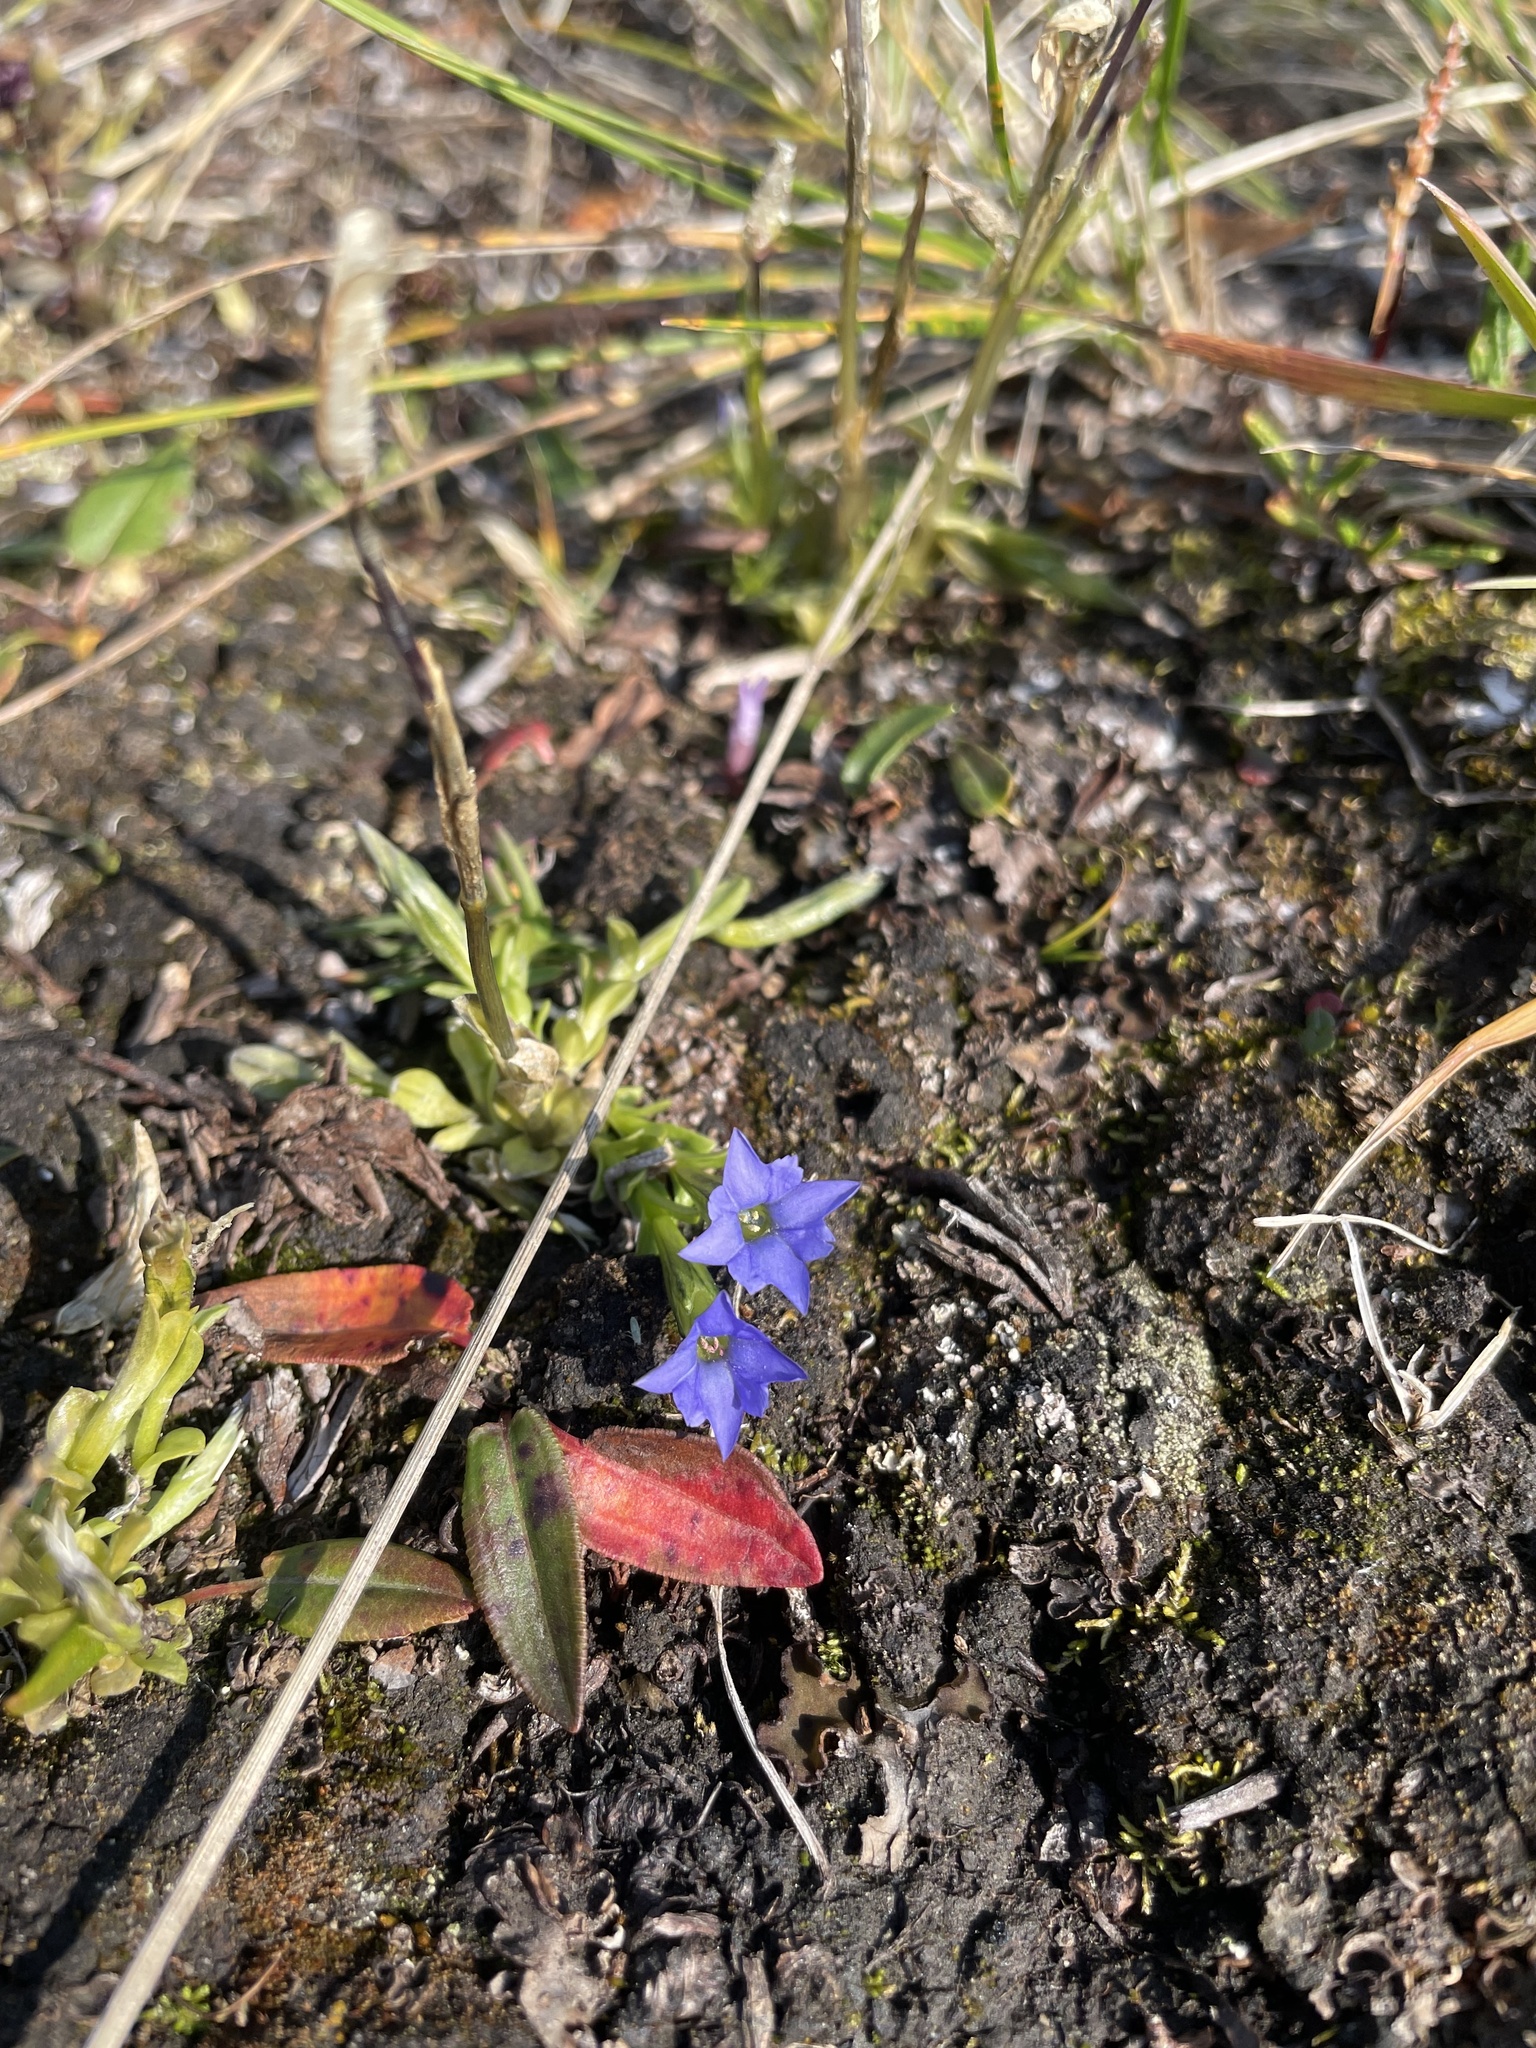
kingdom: Plantae
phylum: Tracheophyta
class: Magnoliopsida
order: Gentianales
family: Gentianaceae
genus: Gentiana
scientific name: Gentiana prostrata
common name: Moss gentian
